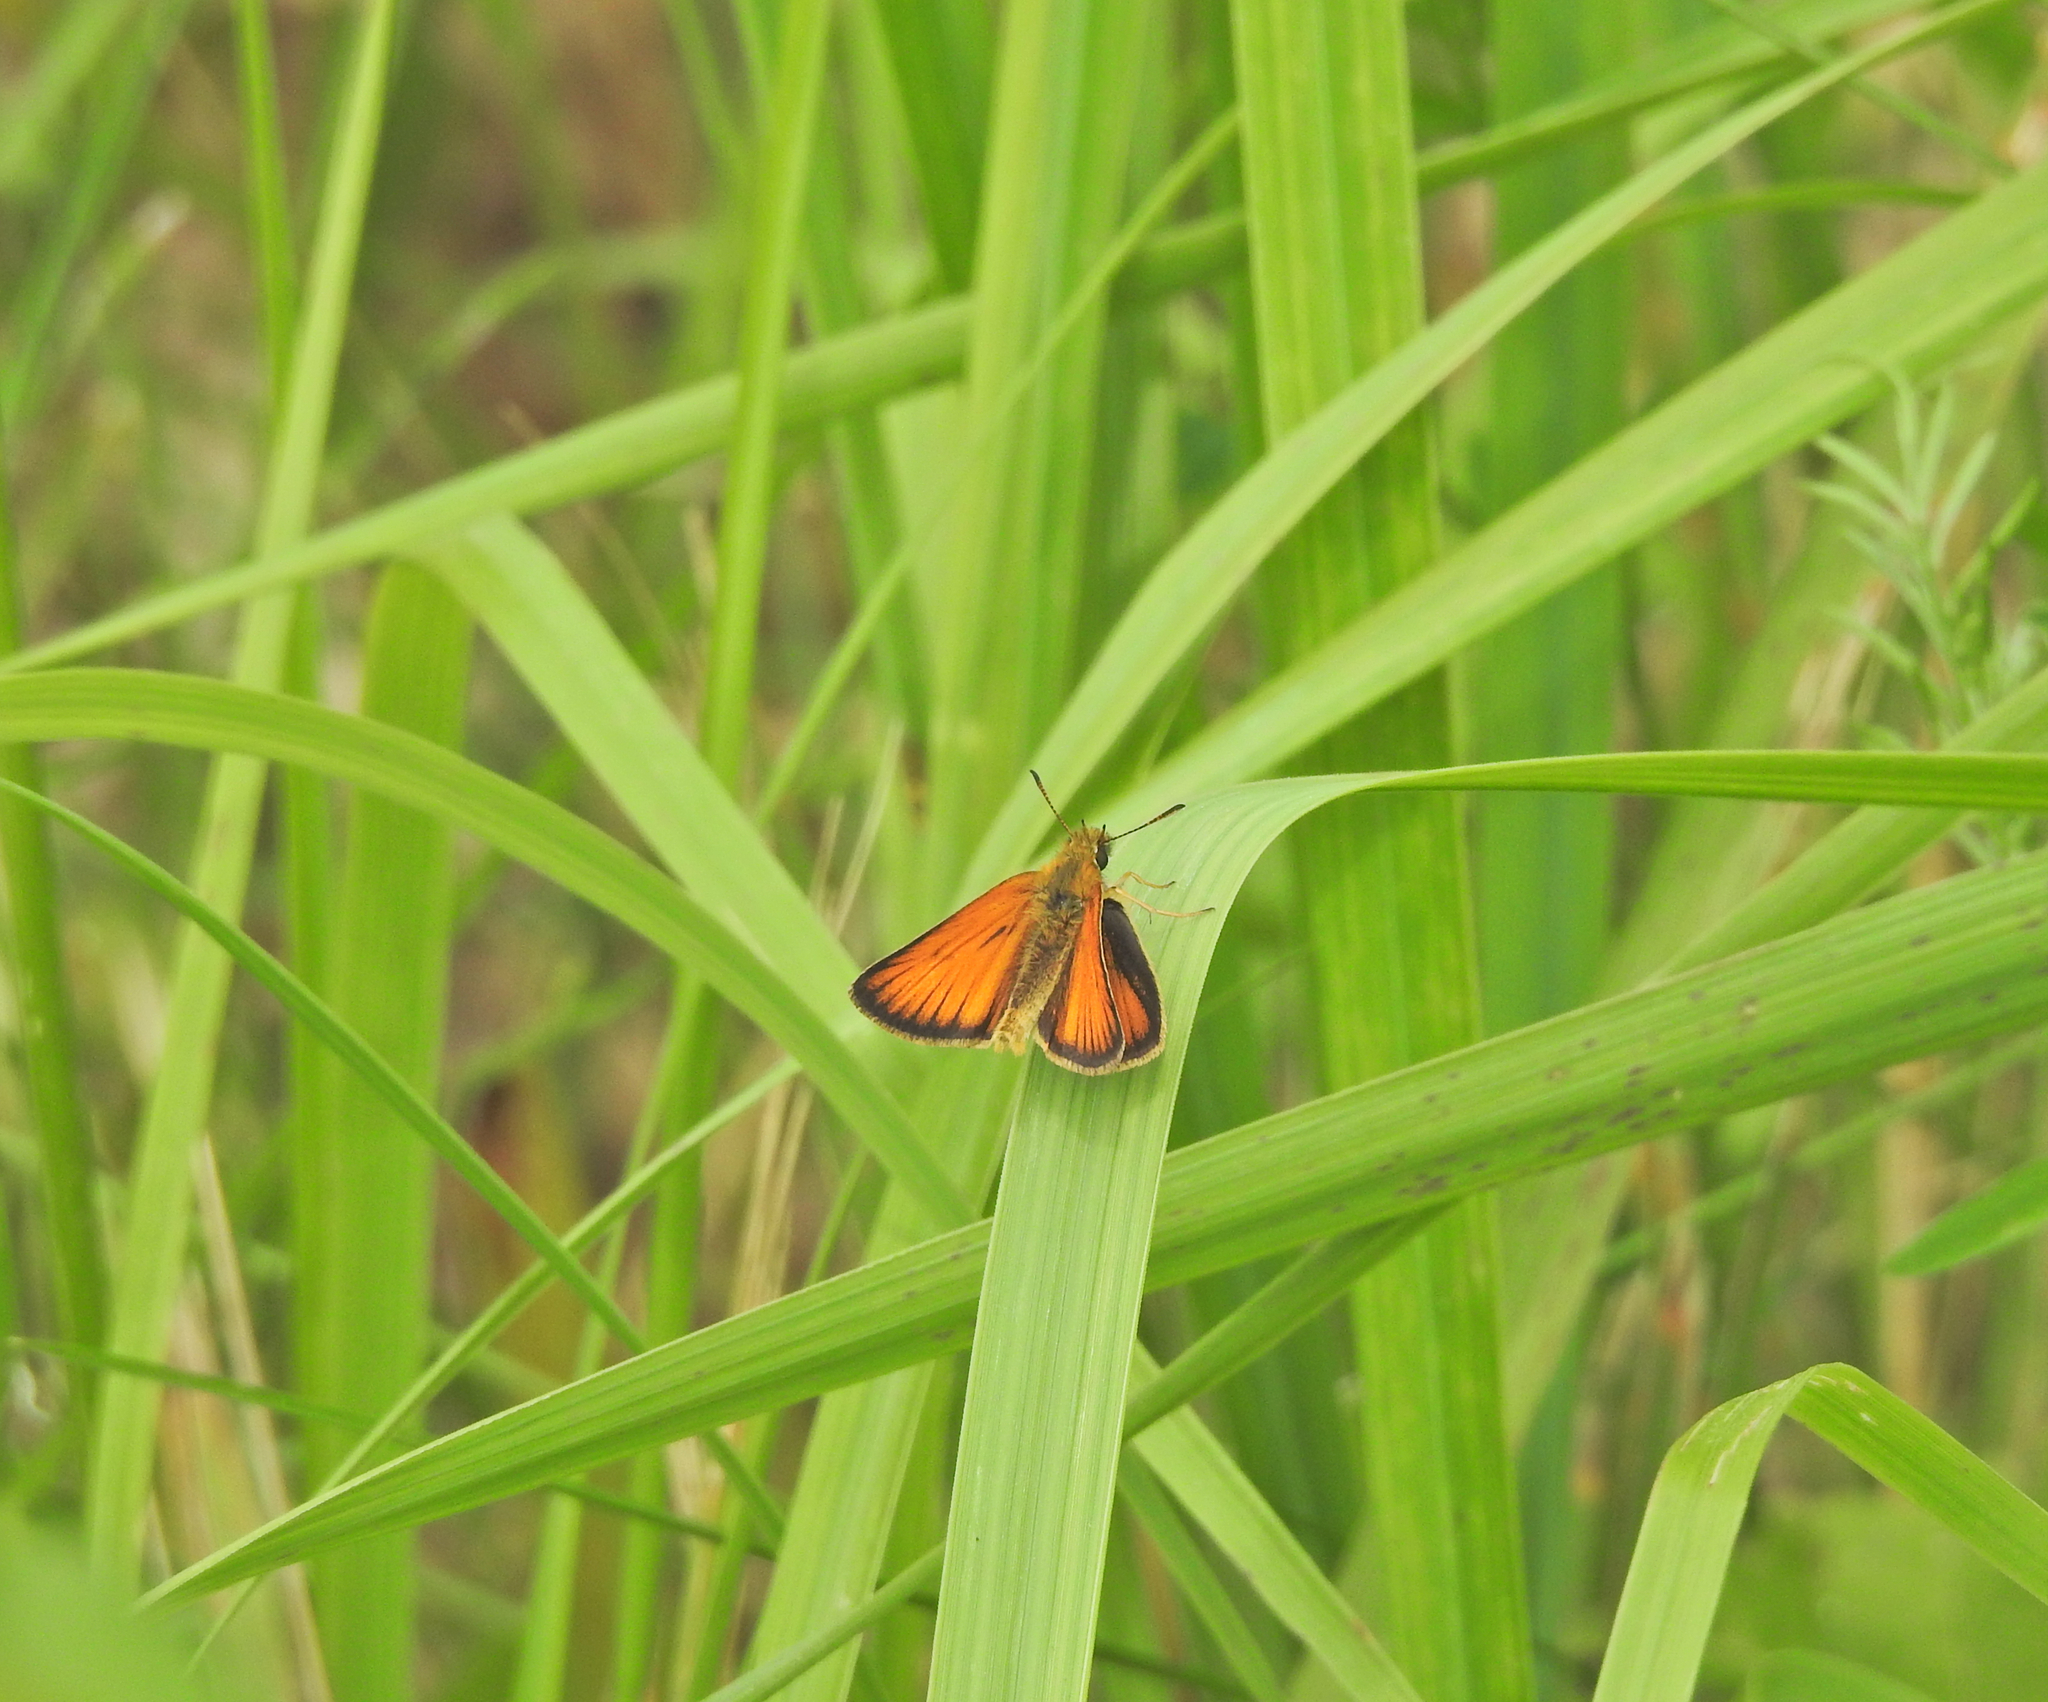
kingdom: Animalia
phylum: Arthropoda
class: Insecta
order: Lepidoptera
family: Hesperiidae
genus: Thymelicus
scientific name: Thymelicus lineola
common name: Essex skipper
